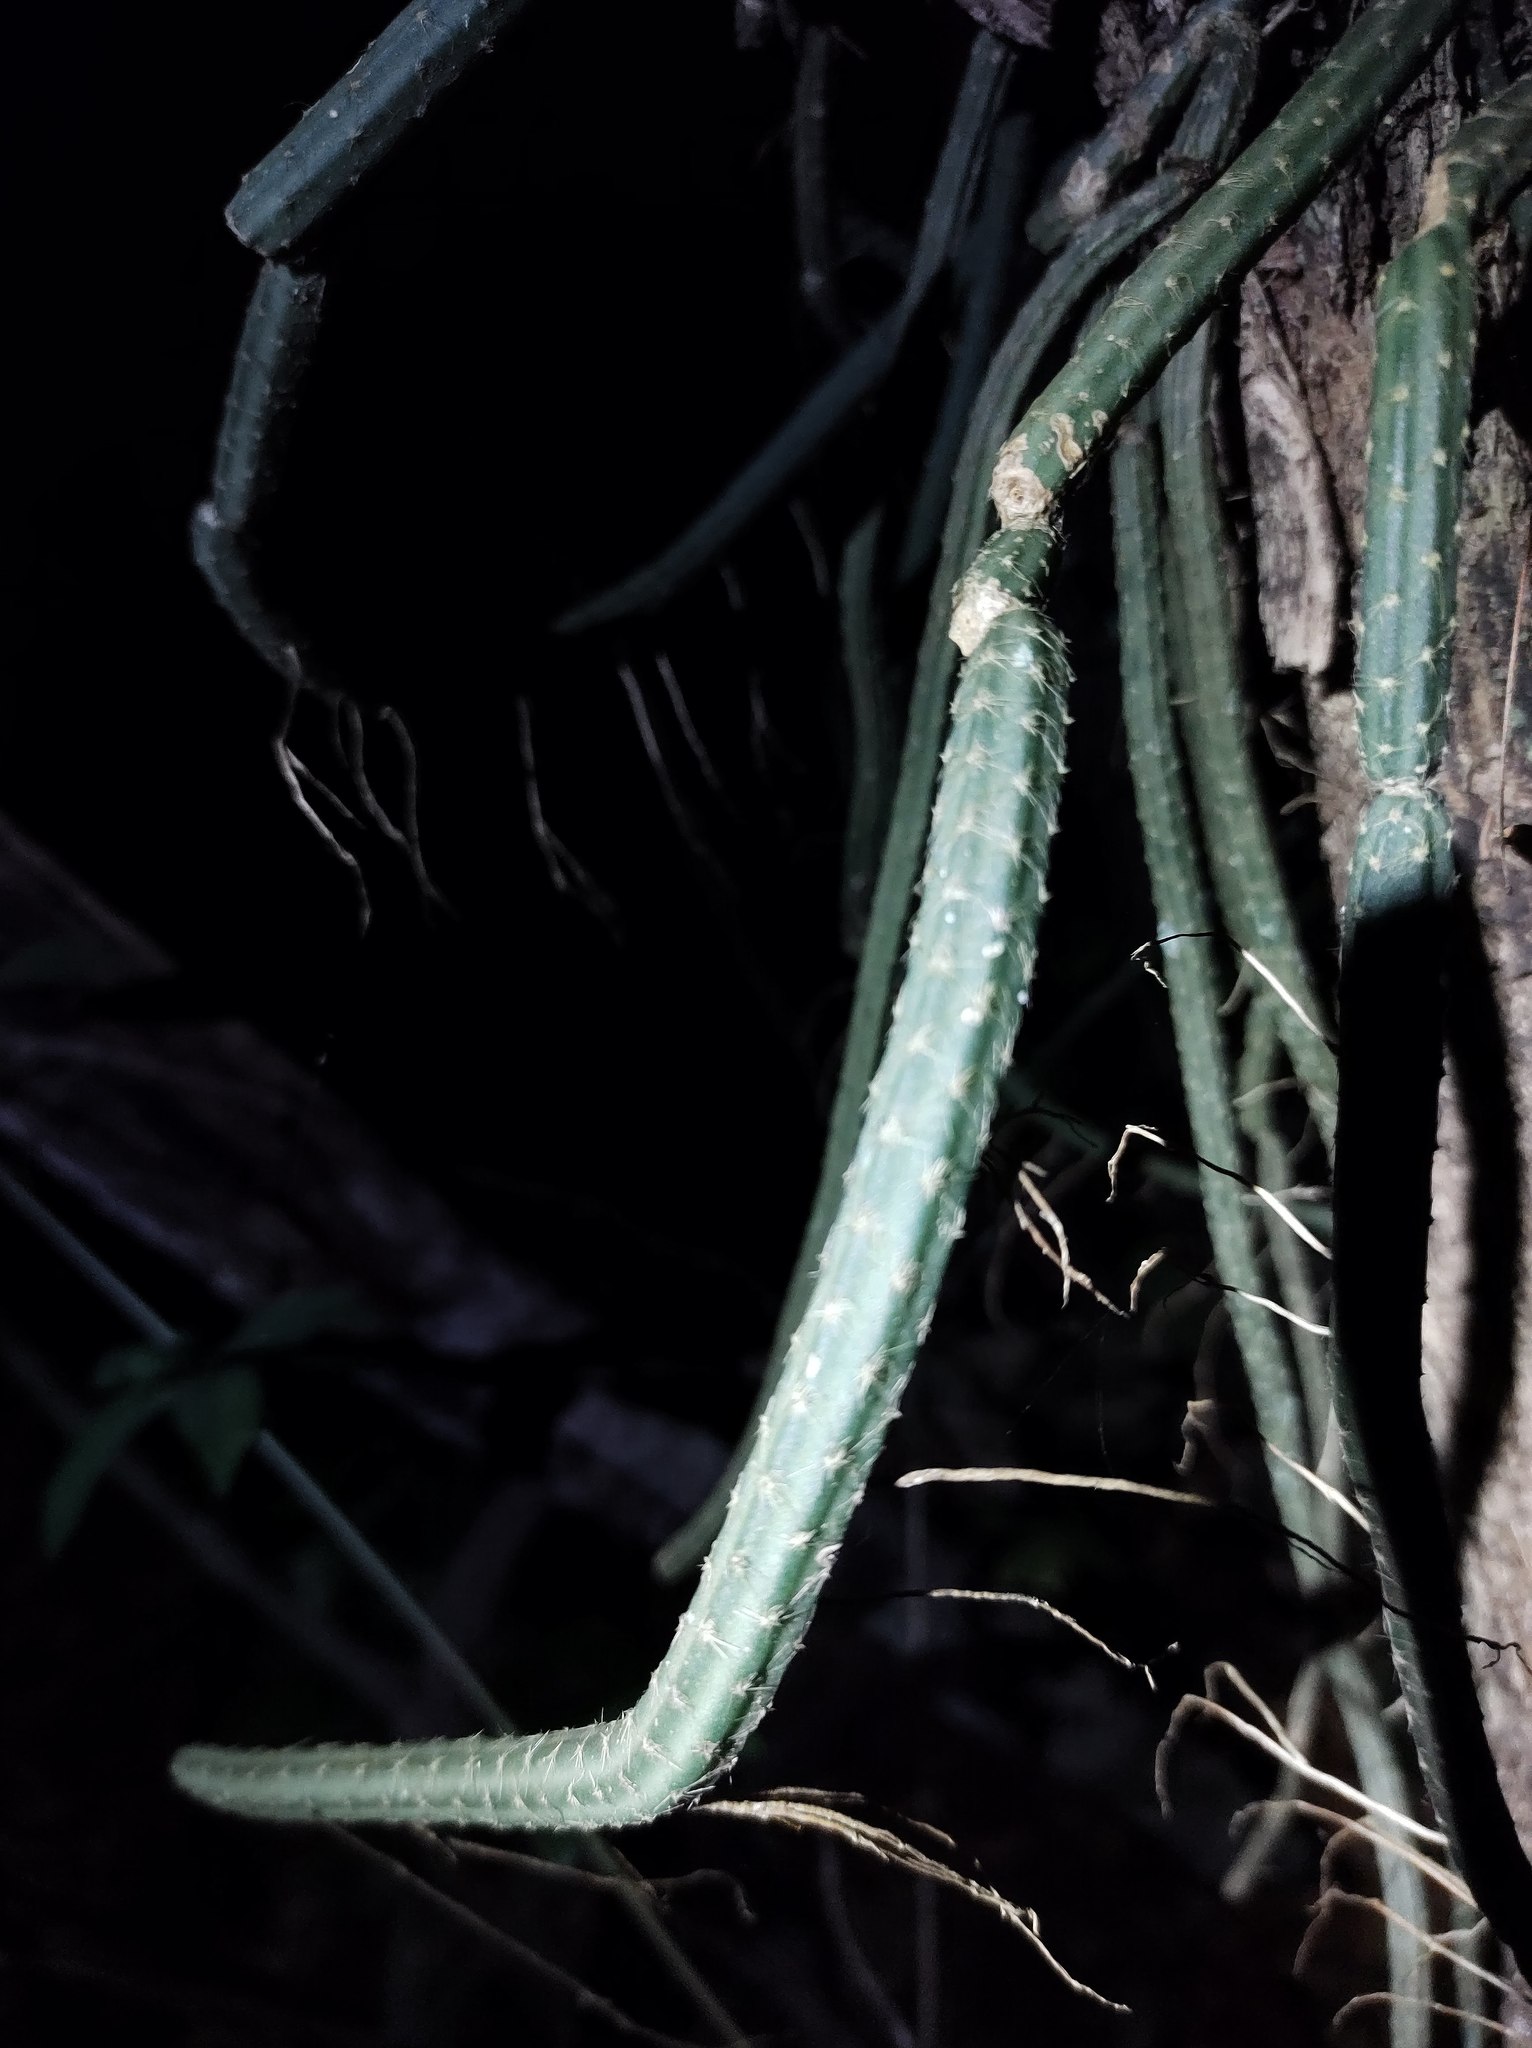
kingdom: Plantae
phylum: Tracheophyta
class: Magnoliopsida
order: Caryophyllales
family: Cactaceae
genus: Selenicereus
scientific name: Selenicereus grandiflorus
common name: Queen of the night
